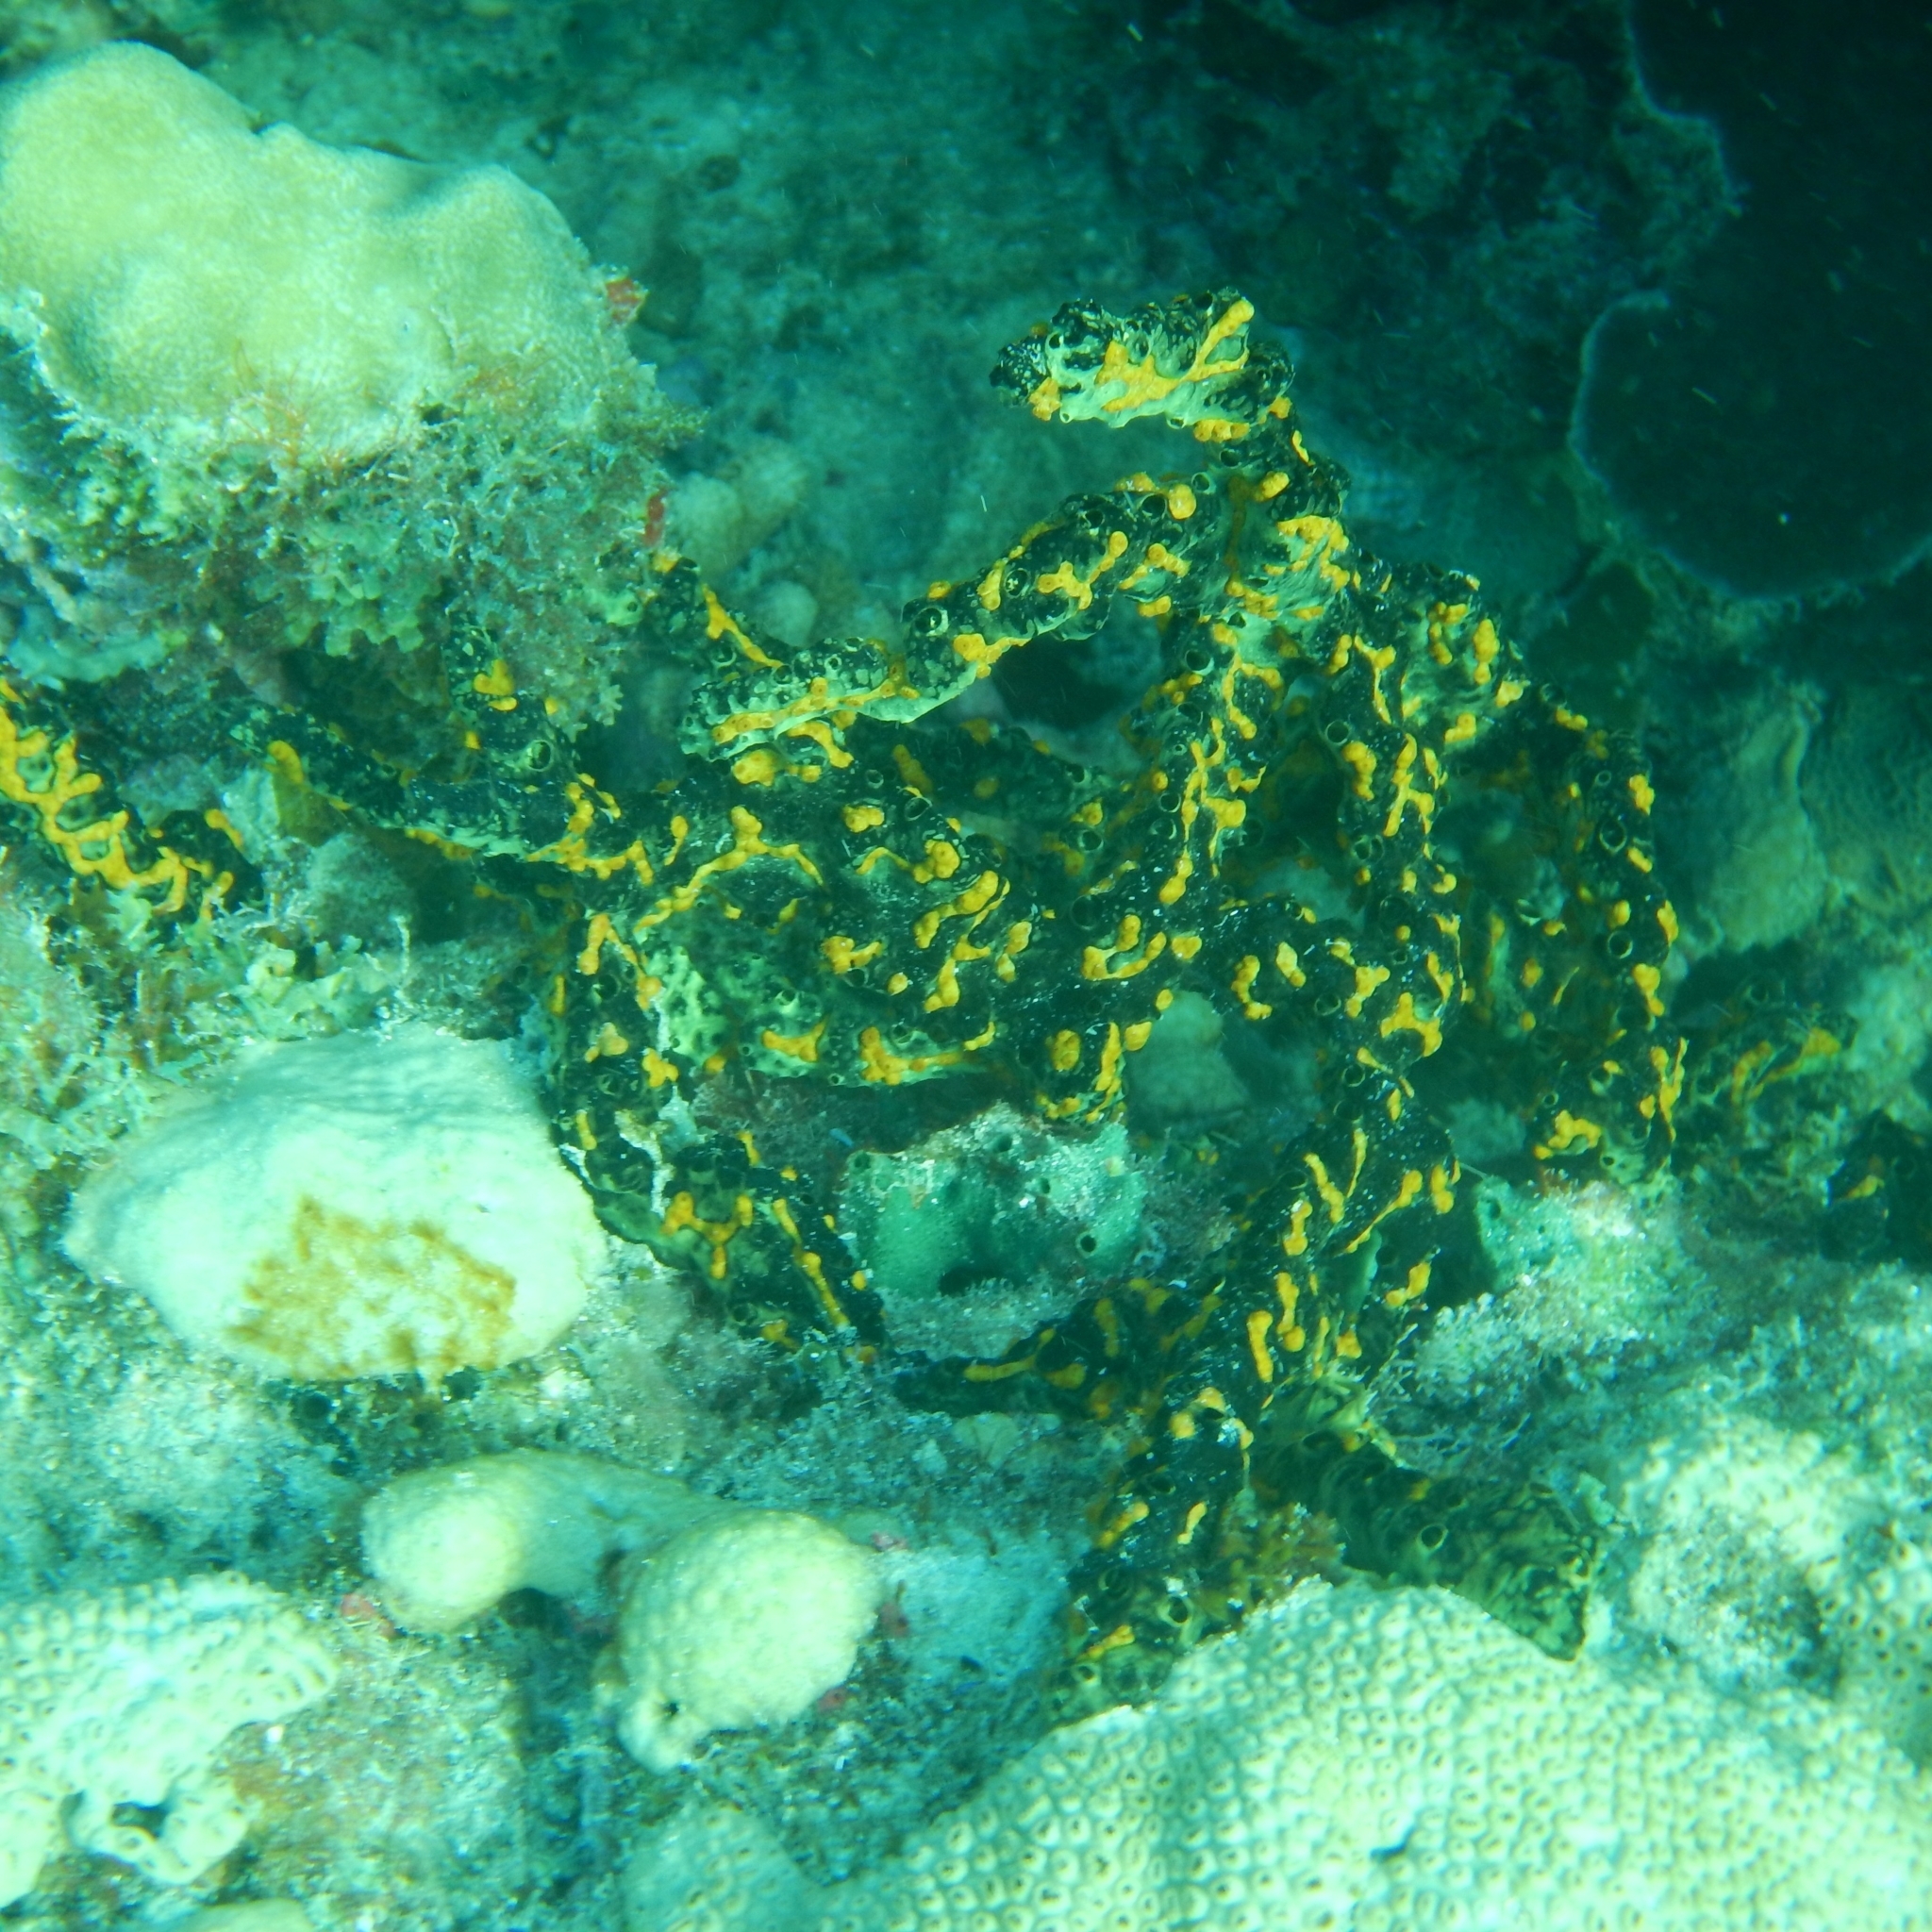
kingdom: Animalia
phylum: Porifera
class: Demospongiae
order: Poecilosclerida
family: Iotrochotidae
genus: Iotrochota
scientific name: Iotrochota birotulata
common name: Purple bleeding sponge
